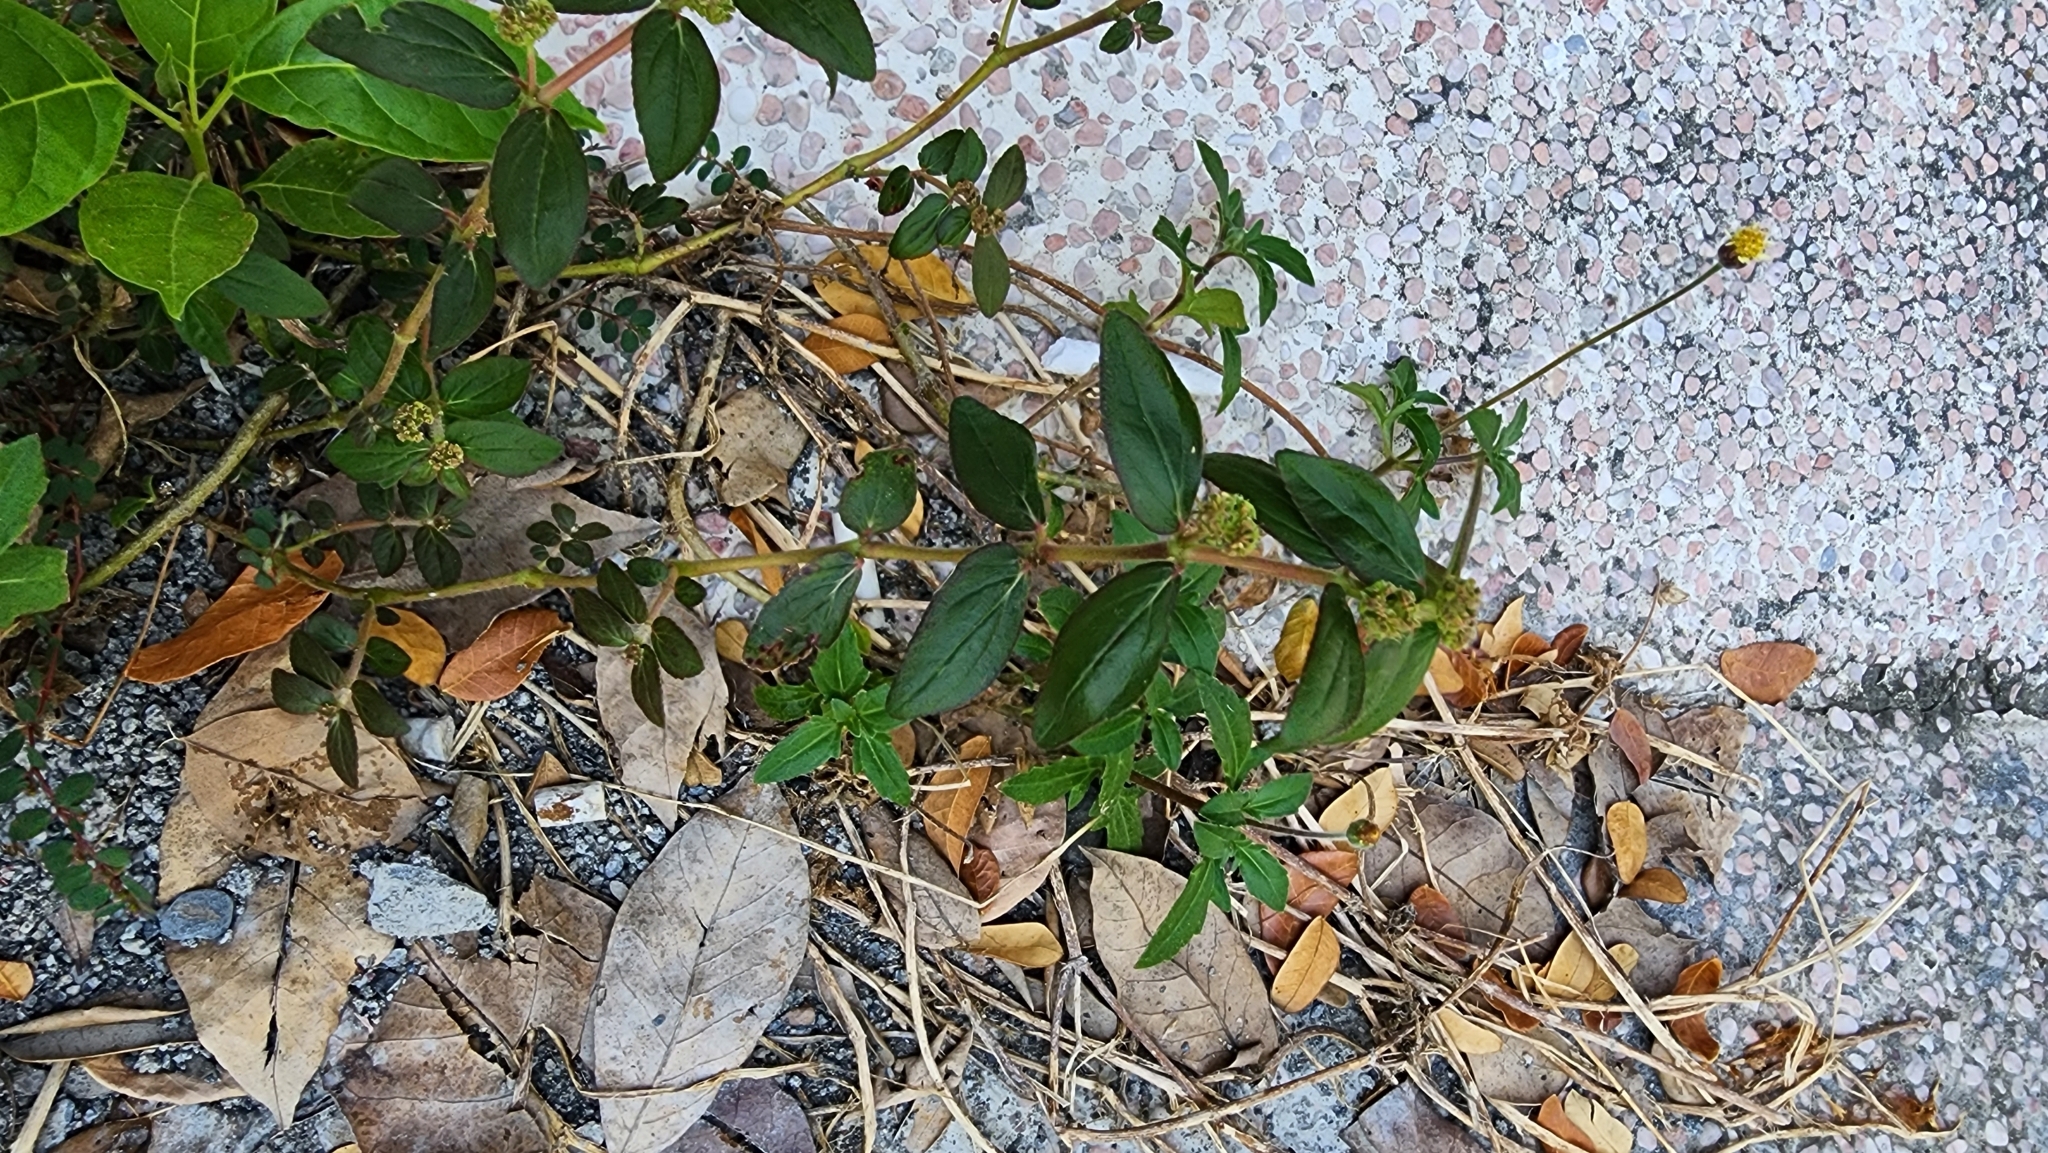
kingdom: Plantae
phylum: Tracheophyta
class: Magnoliopsida
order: Malpighiales
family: Euphorbiaceae
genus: Euphorbia
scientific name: Euphorbia hirta
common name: Pillpod sandmat
